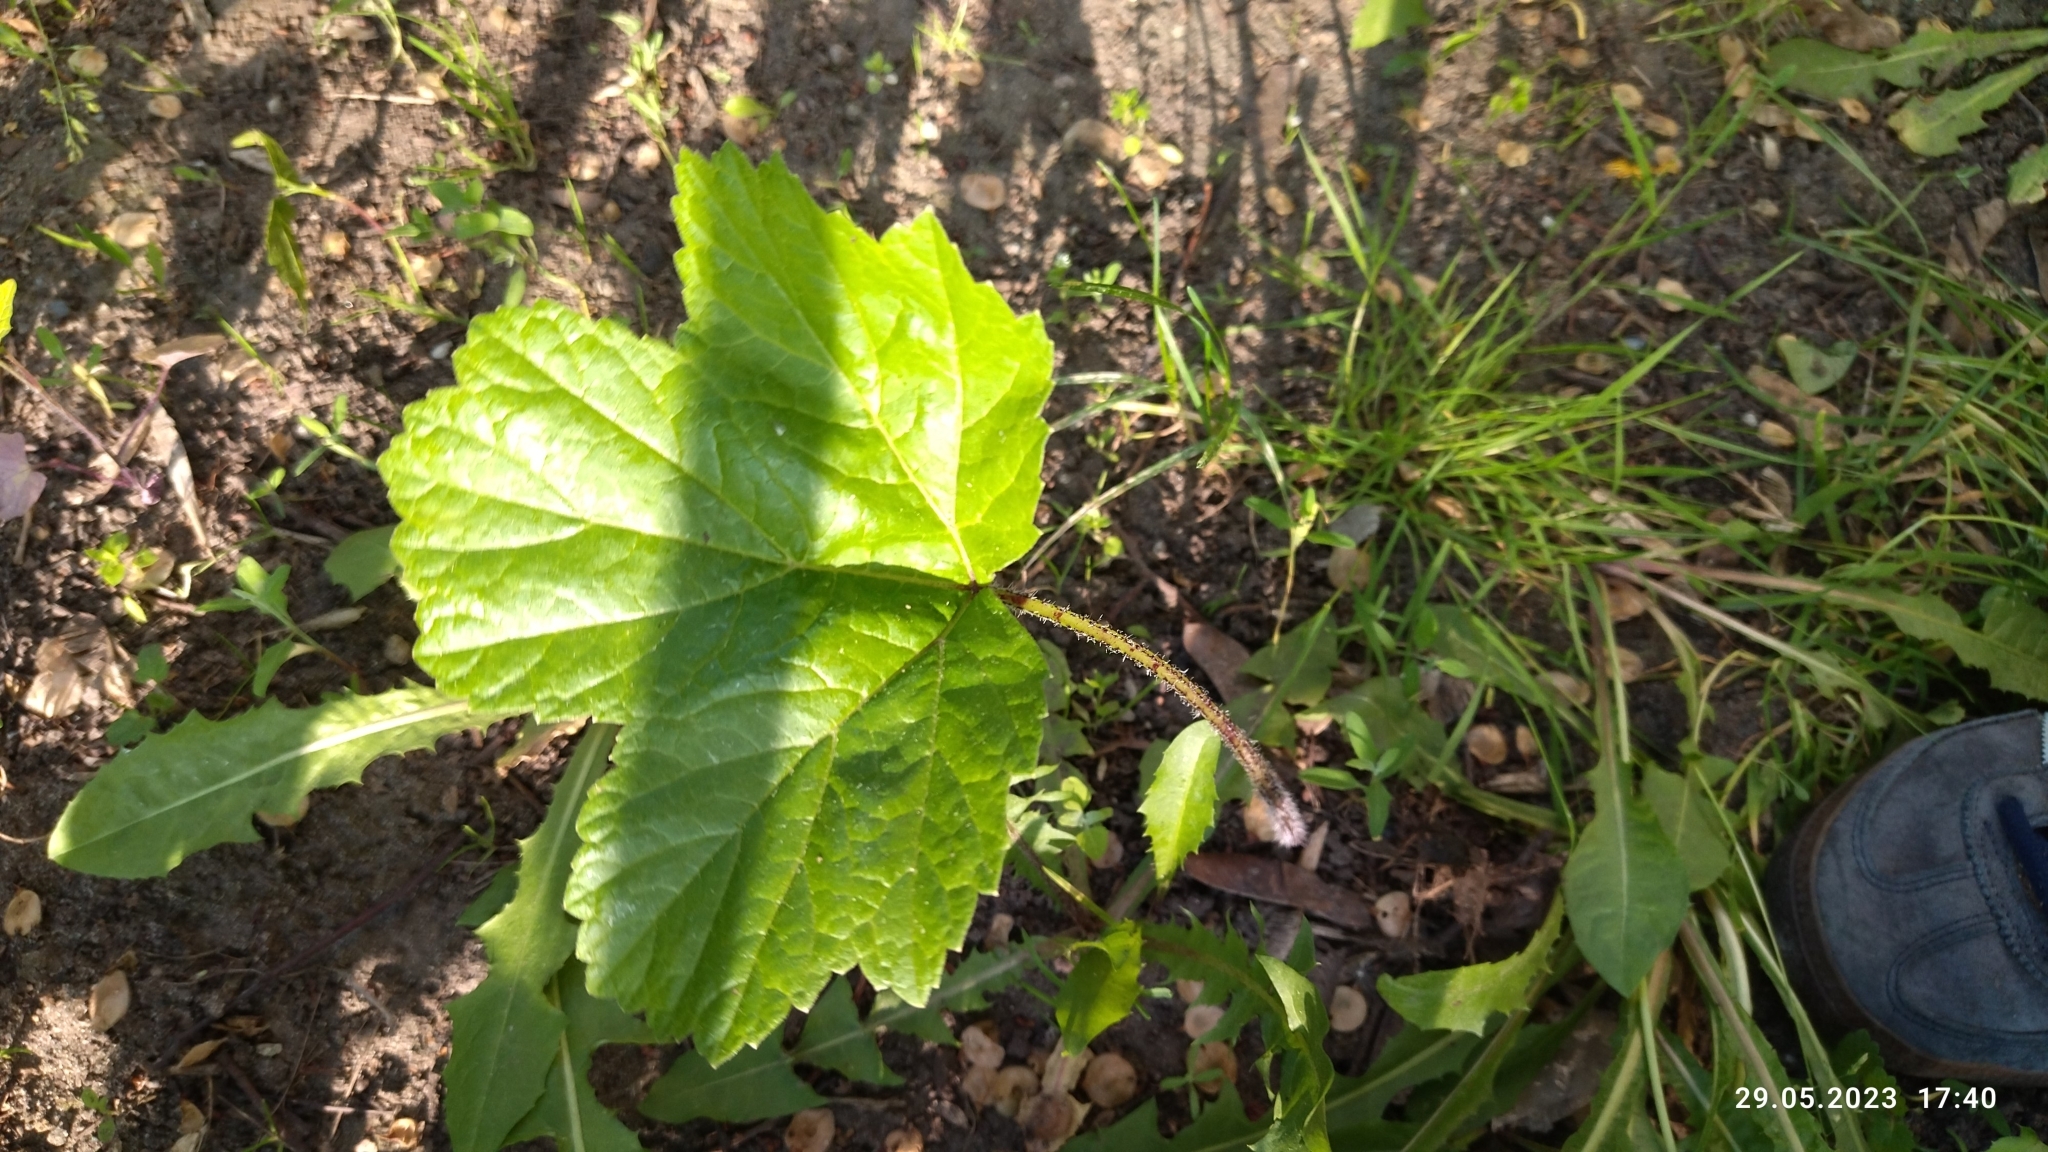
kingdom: Plantae
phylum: Tracheophyta
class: Magnoliopsida
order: Apiales
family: Apiaceae
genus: Heracleum
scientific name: Heracleum sosnowskyi
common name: Sosnowsky's hogweed
